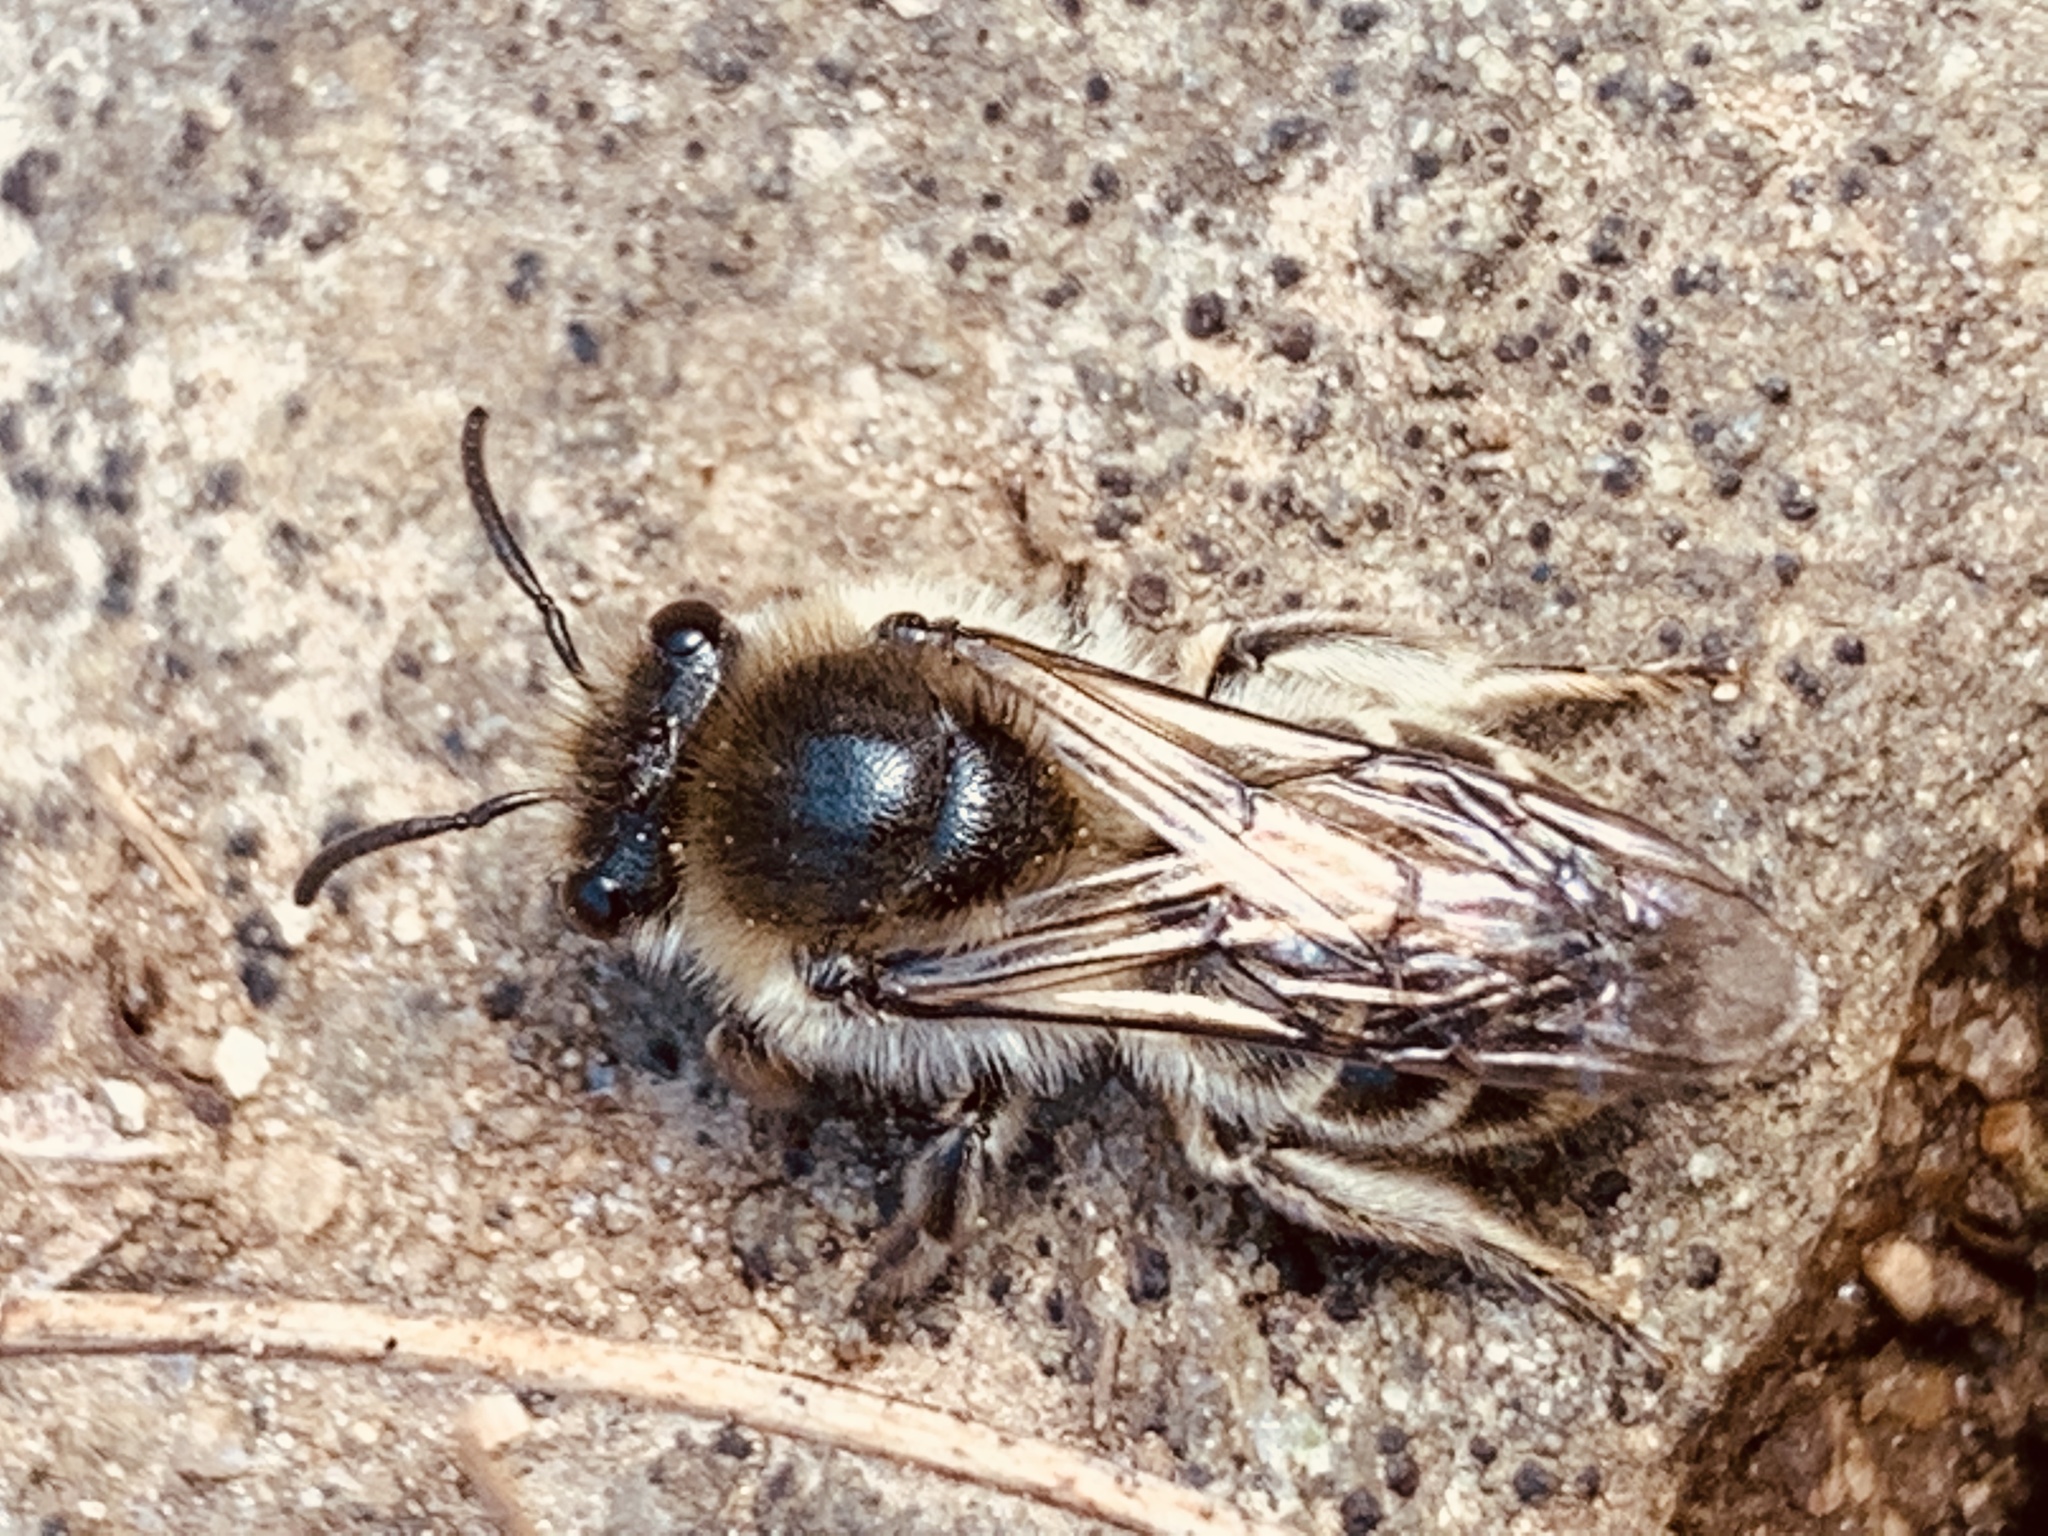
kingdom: Animalia
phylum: Arthropoda
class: Insecta
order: Hymenoptera
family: Colletidae
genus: Colletes
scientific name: Colletes inaequalis
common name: Unequal cellophane bee
